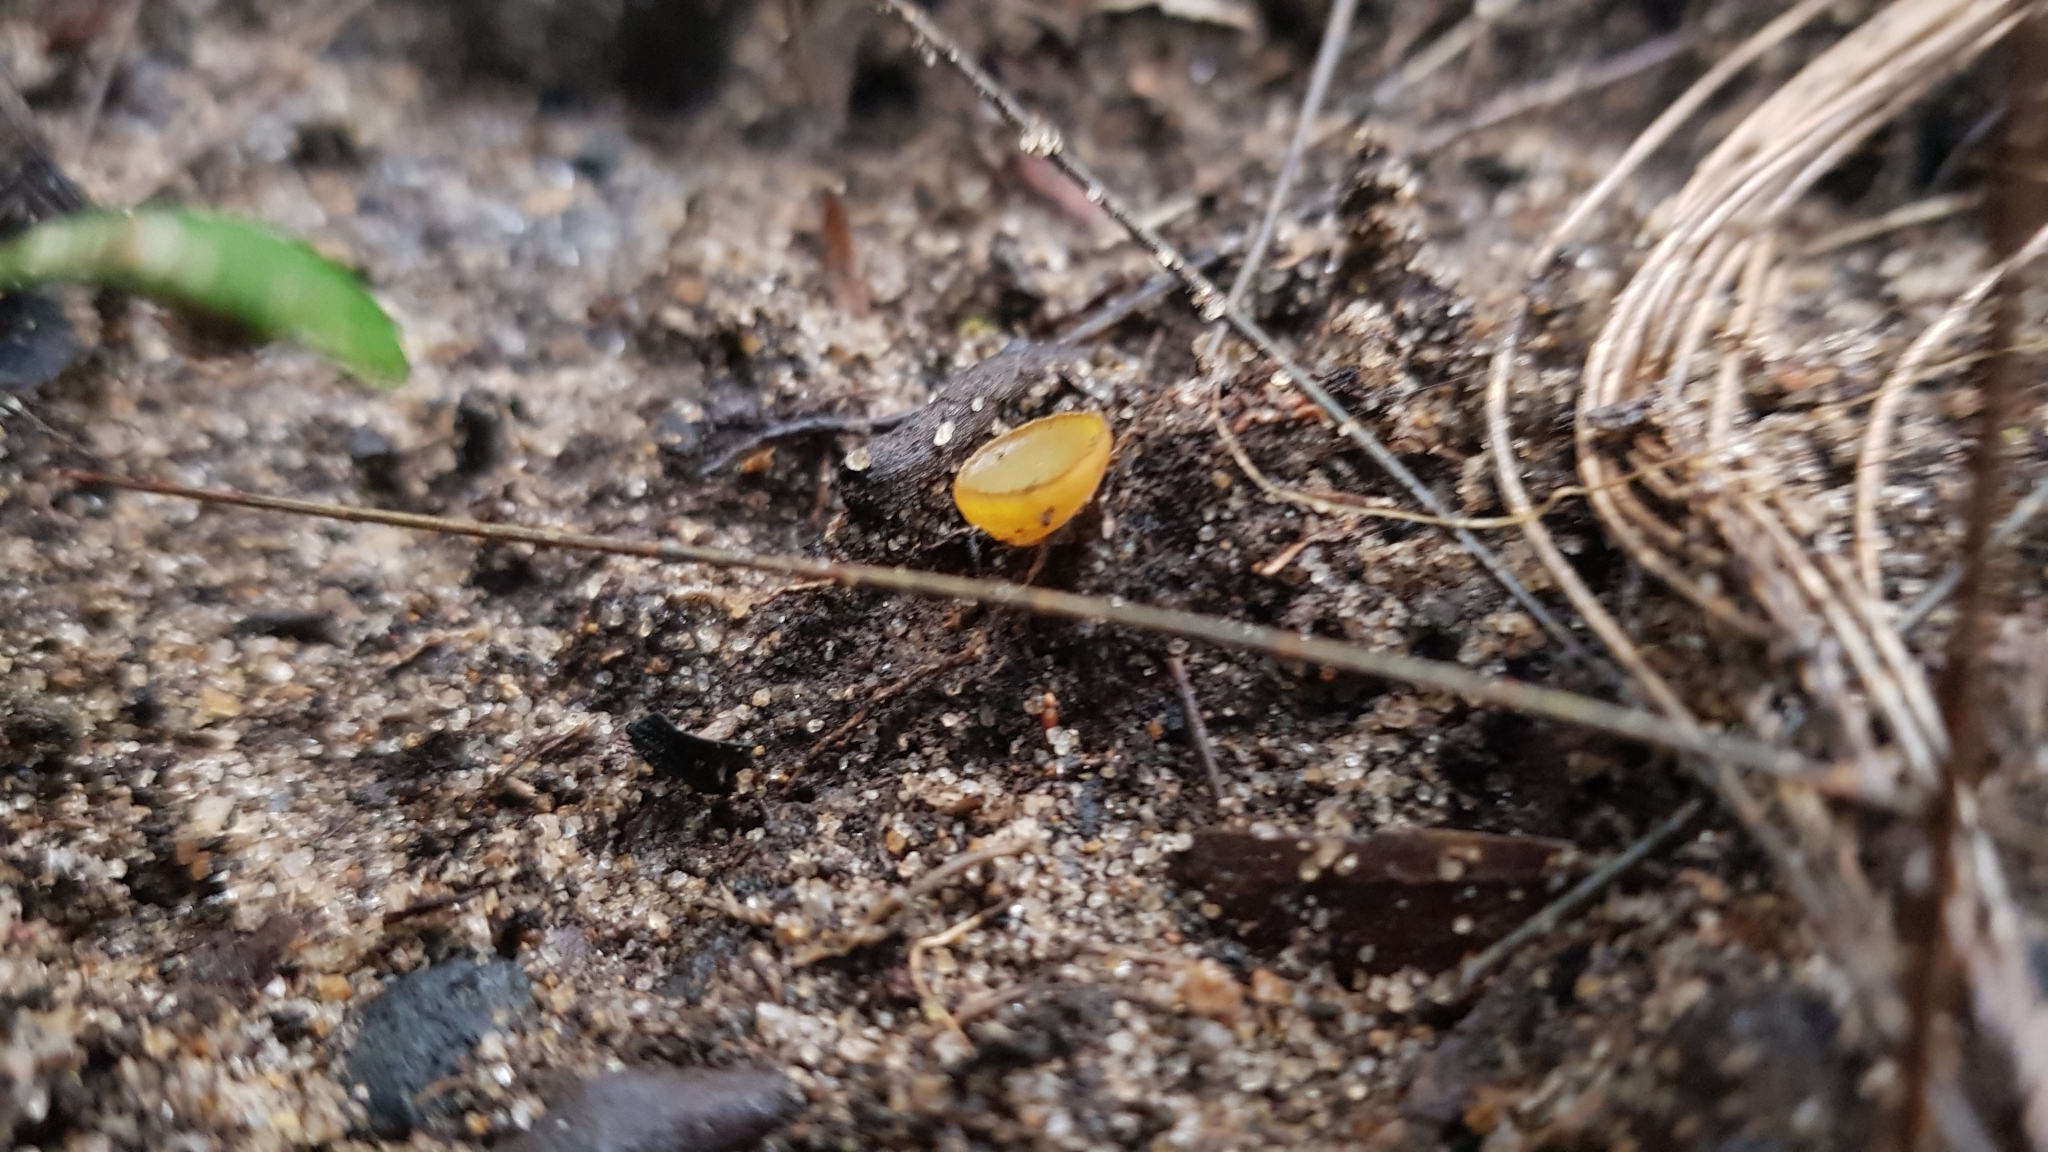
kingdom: Fungi
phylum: Ascomycota
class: Pezizomycetes
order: Pezizales
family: Pyronemataceae
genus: Aleurina
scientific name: Aleurina ferruginea
